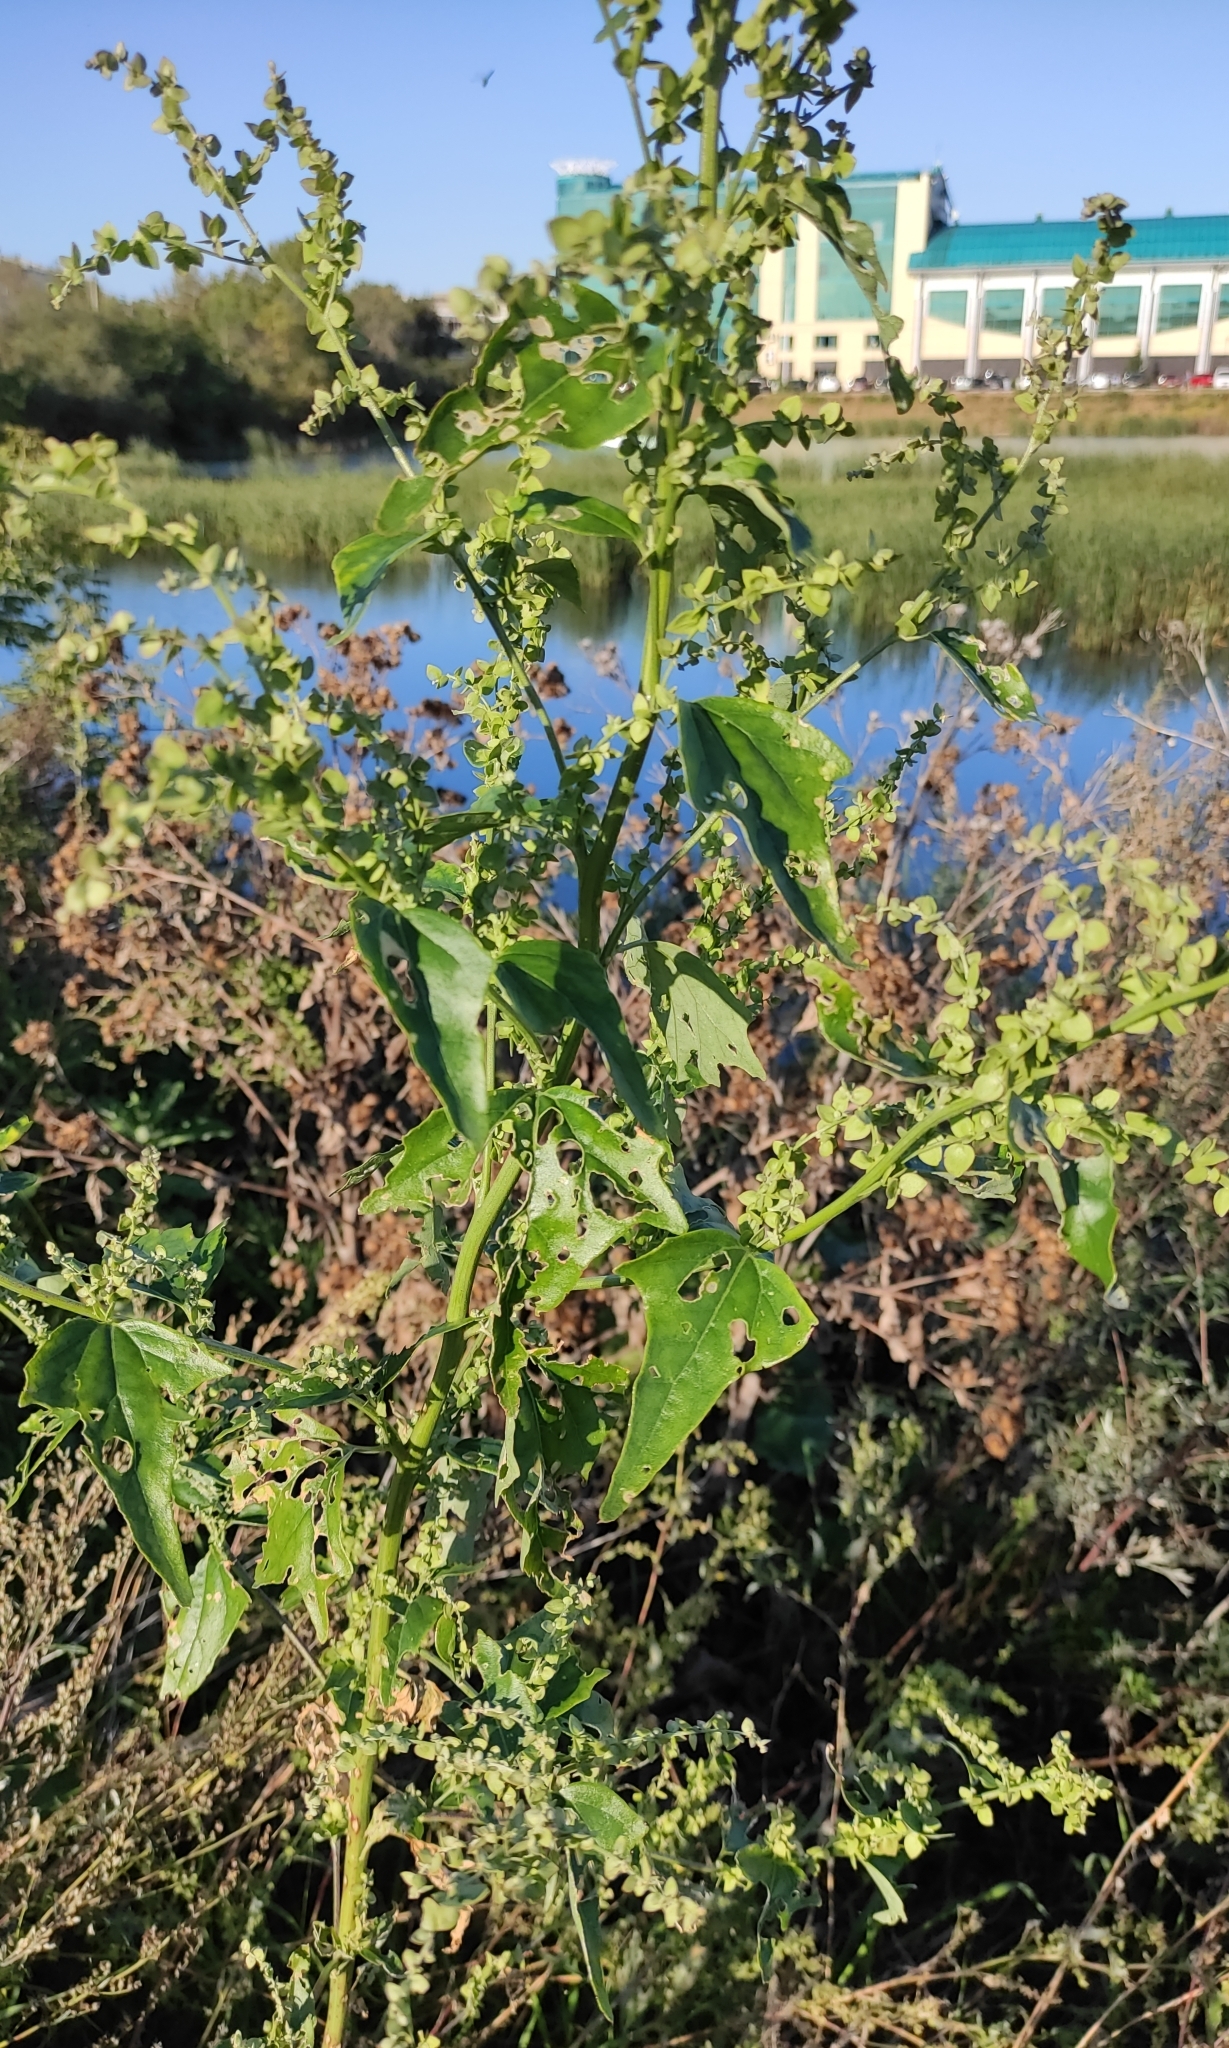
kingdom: Plantae
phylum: Tracheophyta
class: Magnoliopsida
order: Caryophyllales
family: Amaranthaceae
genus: Atriplex
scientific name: Atriplex sagittata
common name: Purple orache
